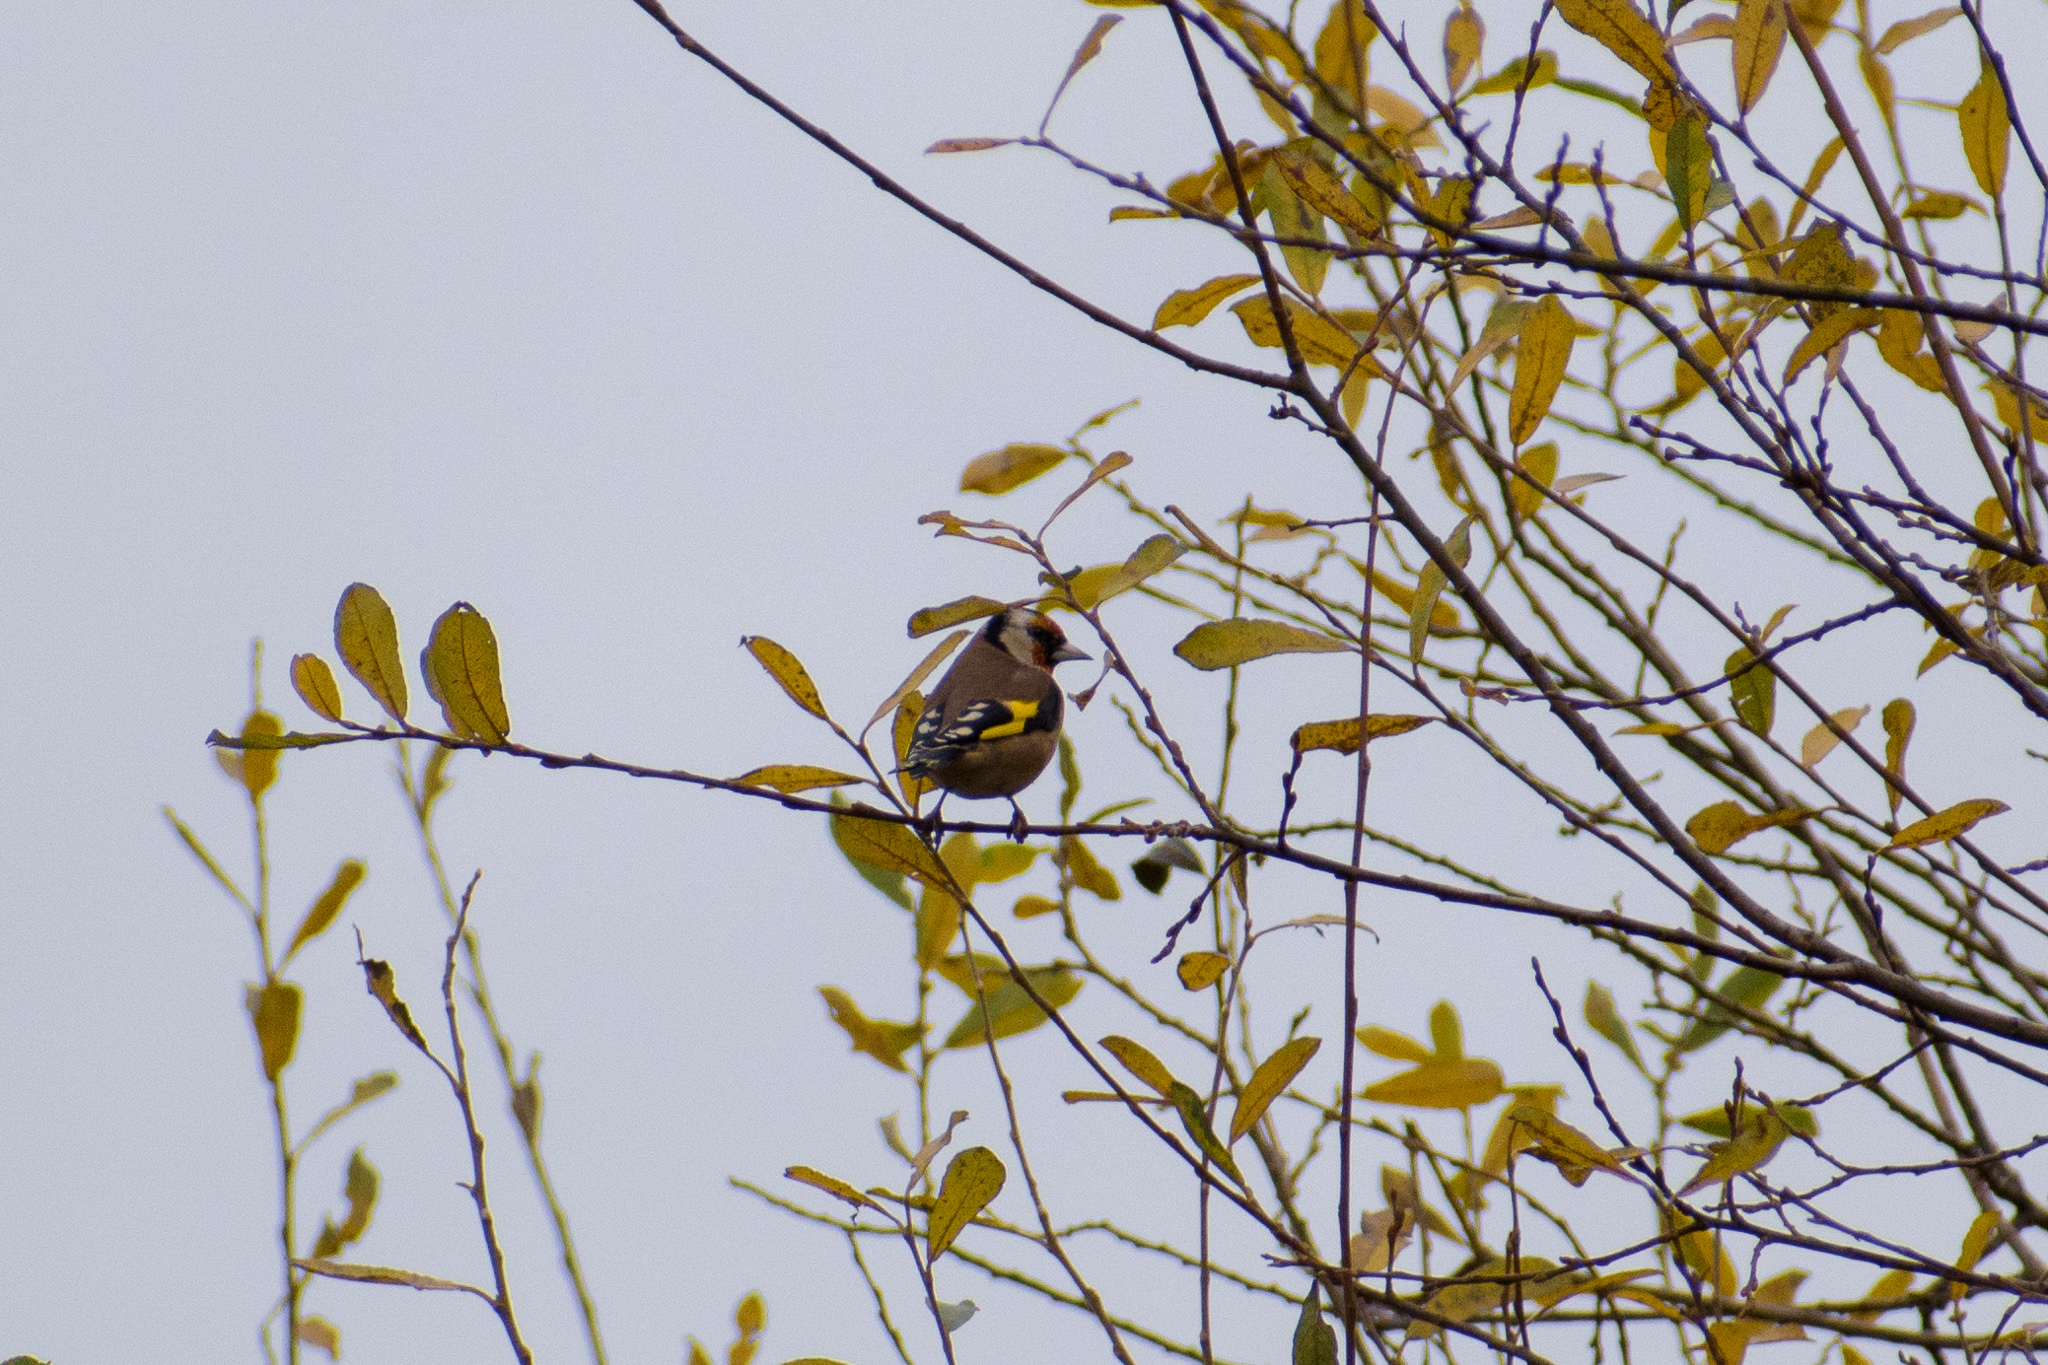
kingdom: Animalia
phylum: Chordata
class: Aves
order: Passeriformes
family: Fringillidae
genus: Carduelis
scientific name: Carduelis carduelis
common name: European goldfinch
